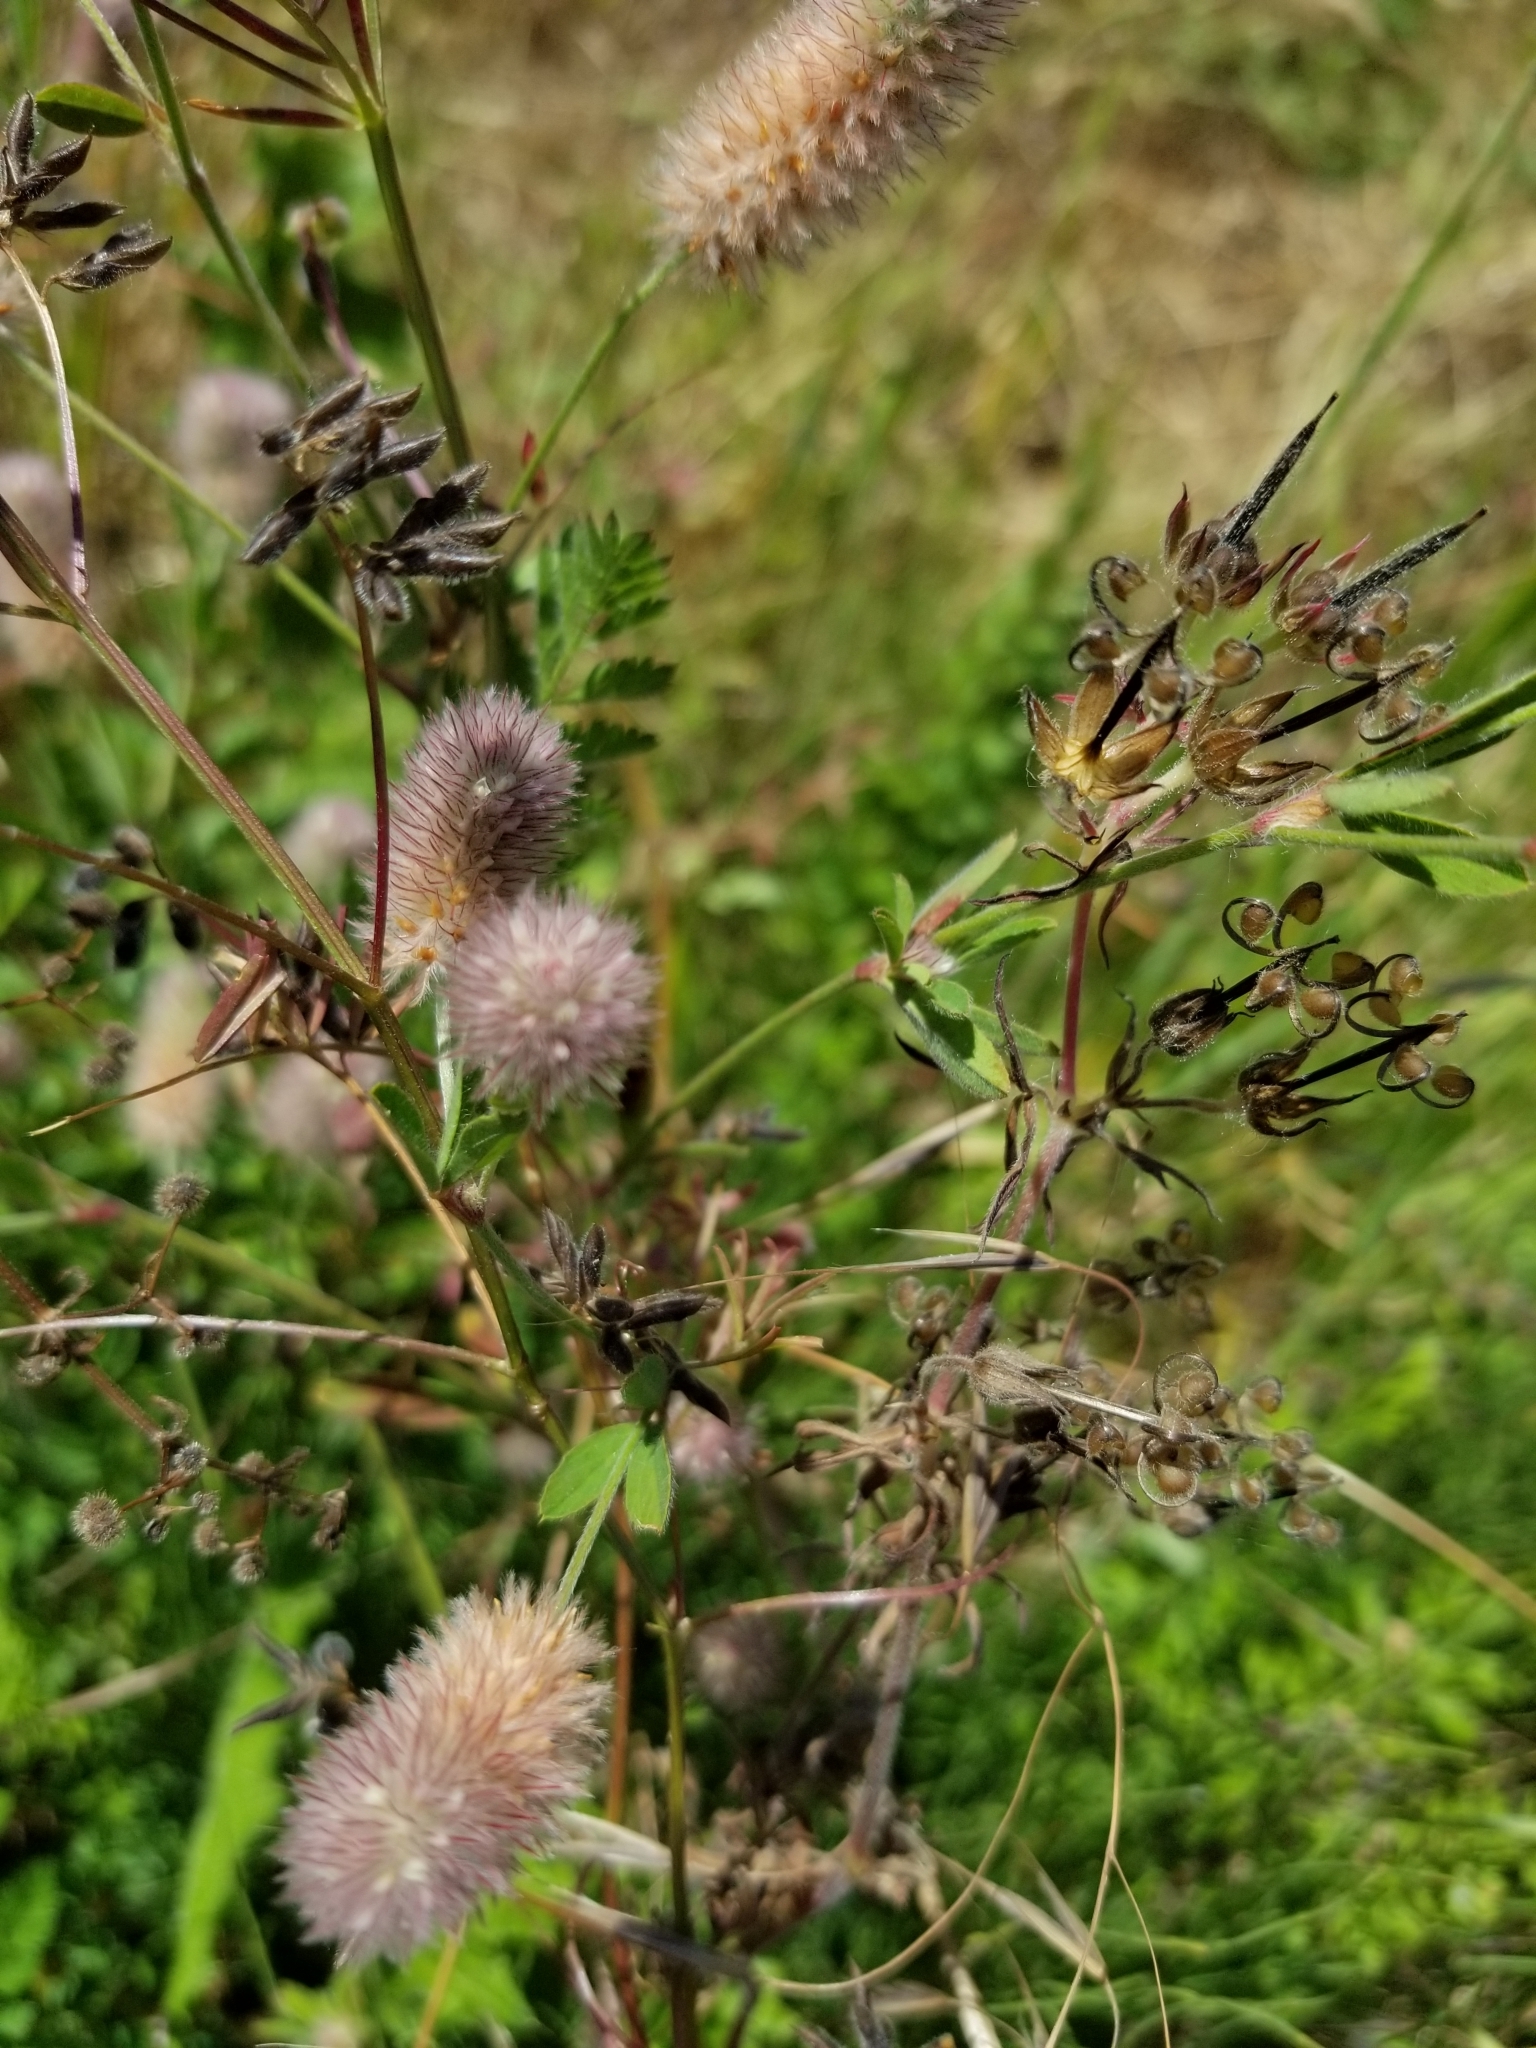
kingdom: Plantae
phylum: Tracheophyta
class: Magnoliopsida
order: Fabales
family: Fabaceae
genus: Trifolium
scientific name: Trifolium arvense
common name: Hare's-foot clover
